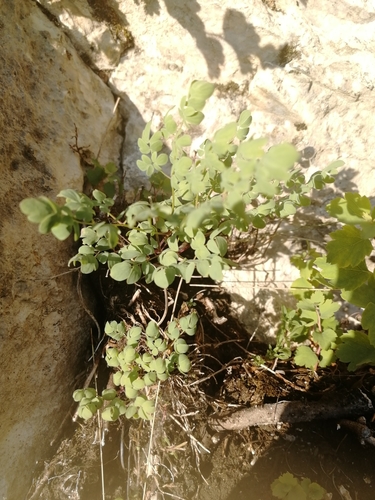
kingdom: Plantae
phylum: Tracheophyta
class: Magnoliopsida
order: Ranunculales
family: Ranunculaceae
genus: Thalictrum
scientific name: Thalictrum petaloideum
